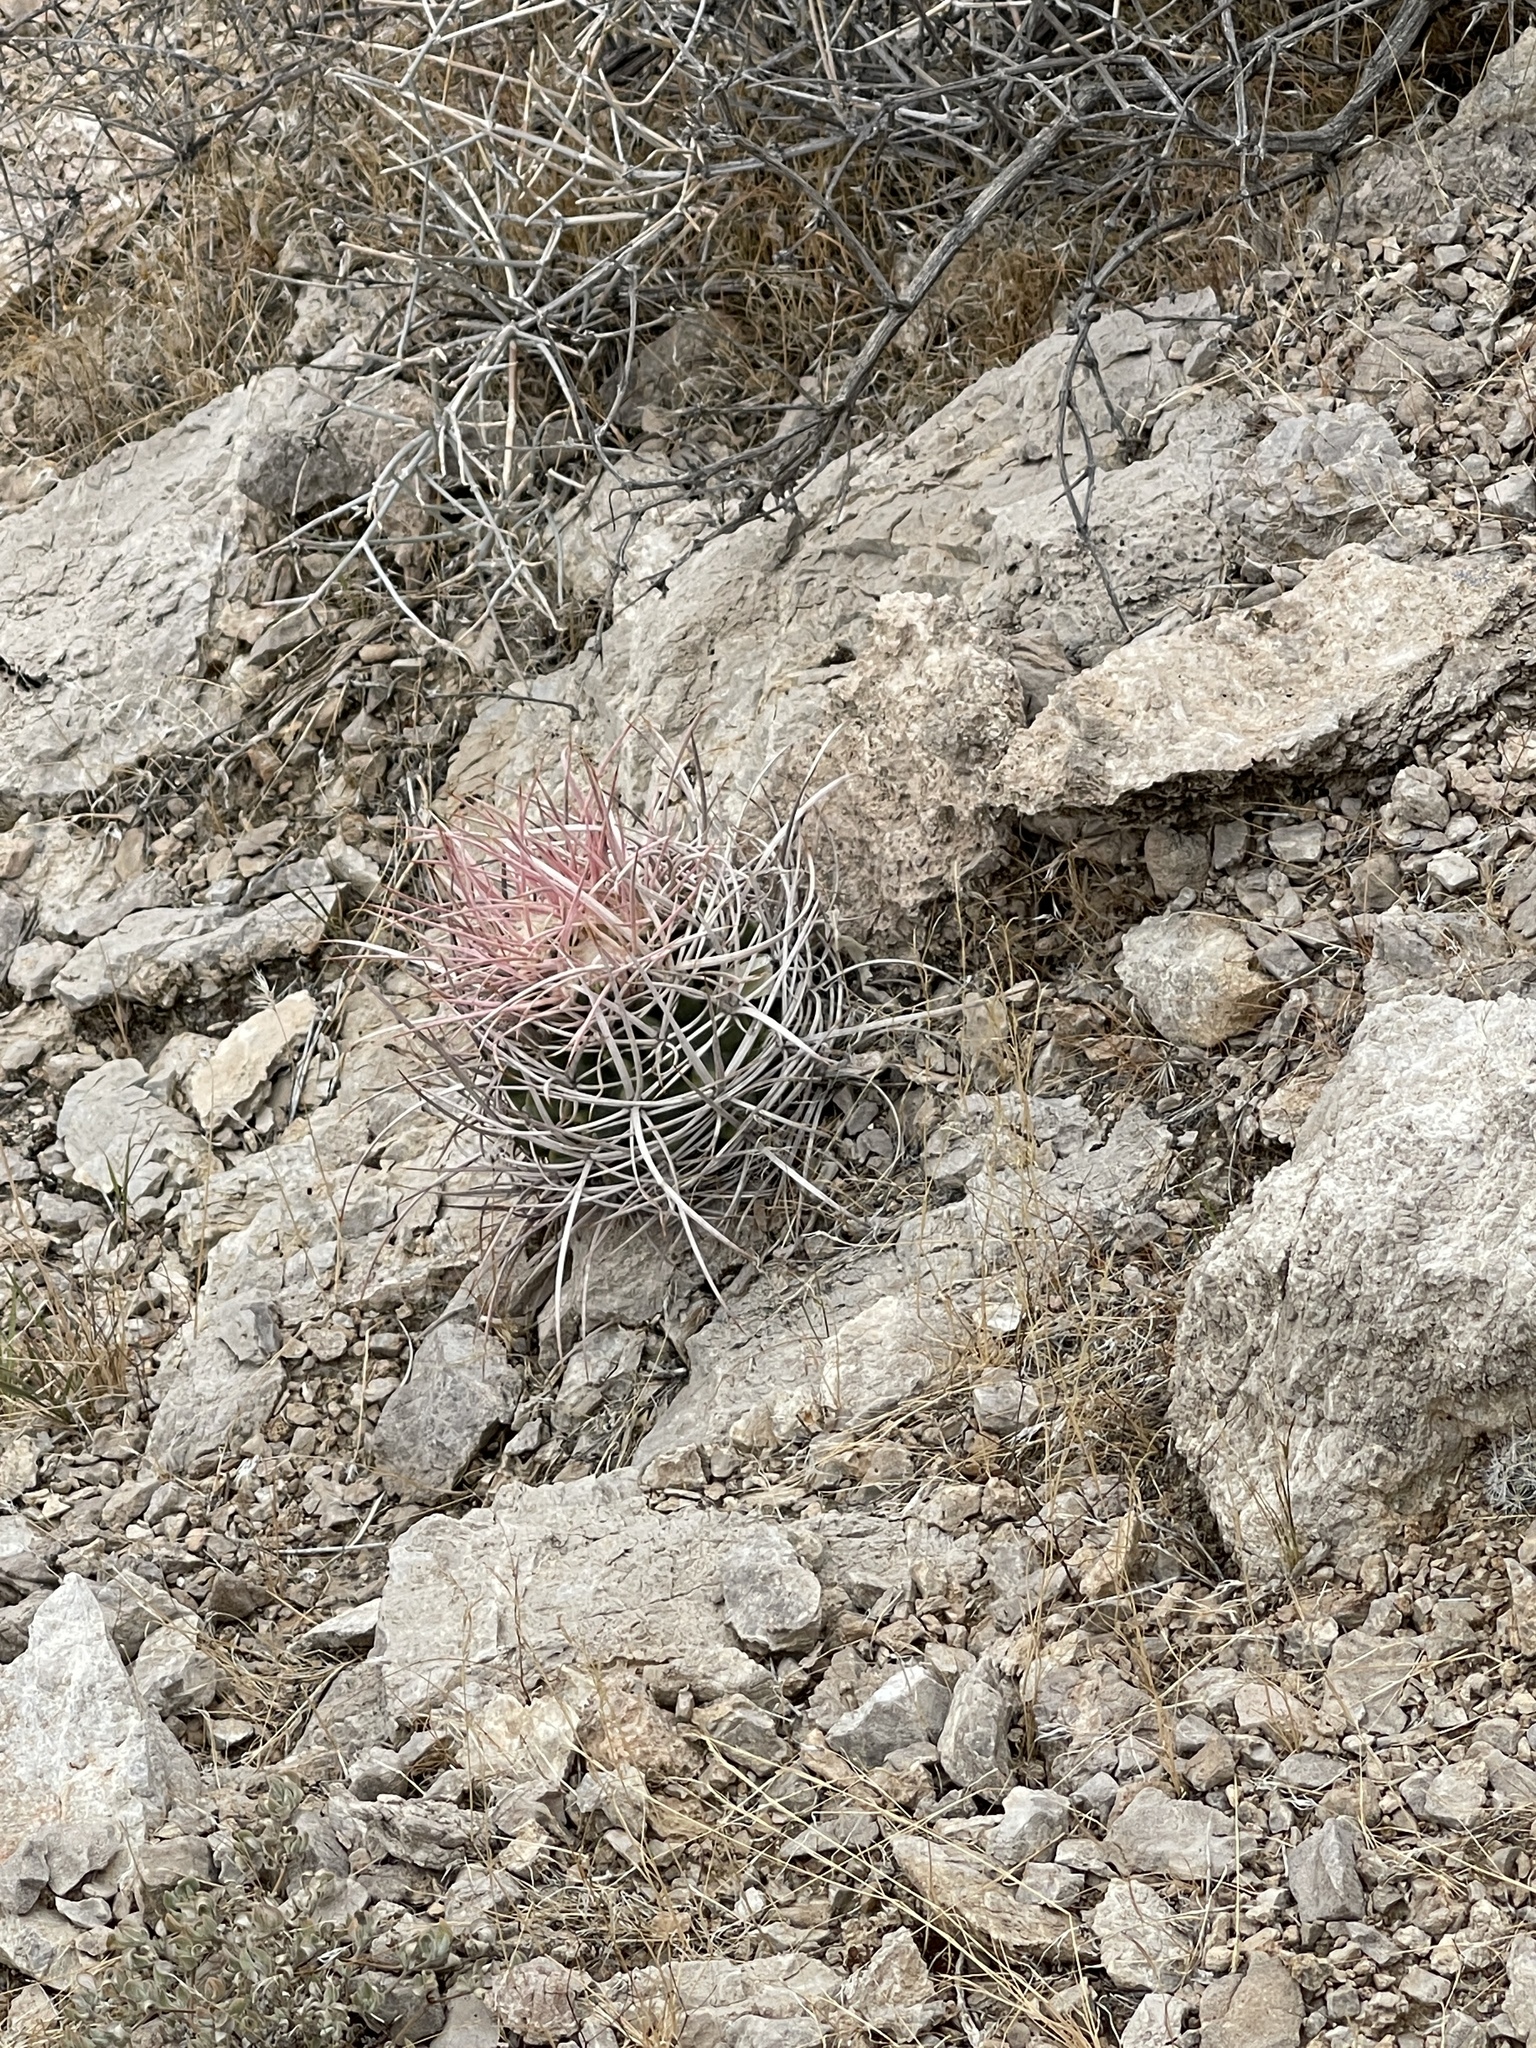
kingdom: Plantae
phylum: Tracheophyta
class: Magnoliopsida
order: Caryophyllales
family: Cactaceae
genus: Echinocactus
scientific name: Echinocactus polycephalus
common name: Cottontop cactus
